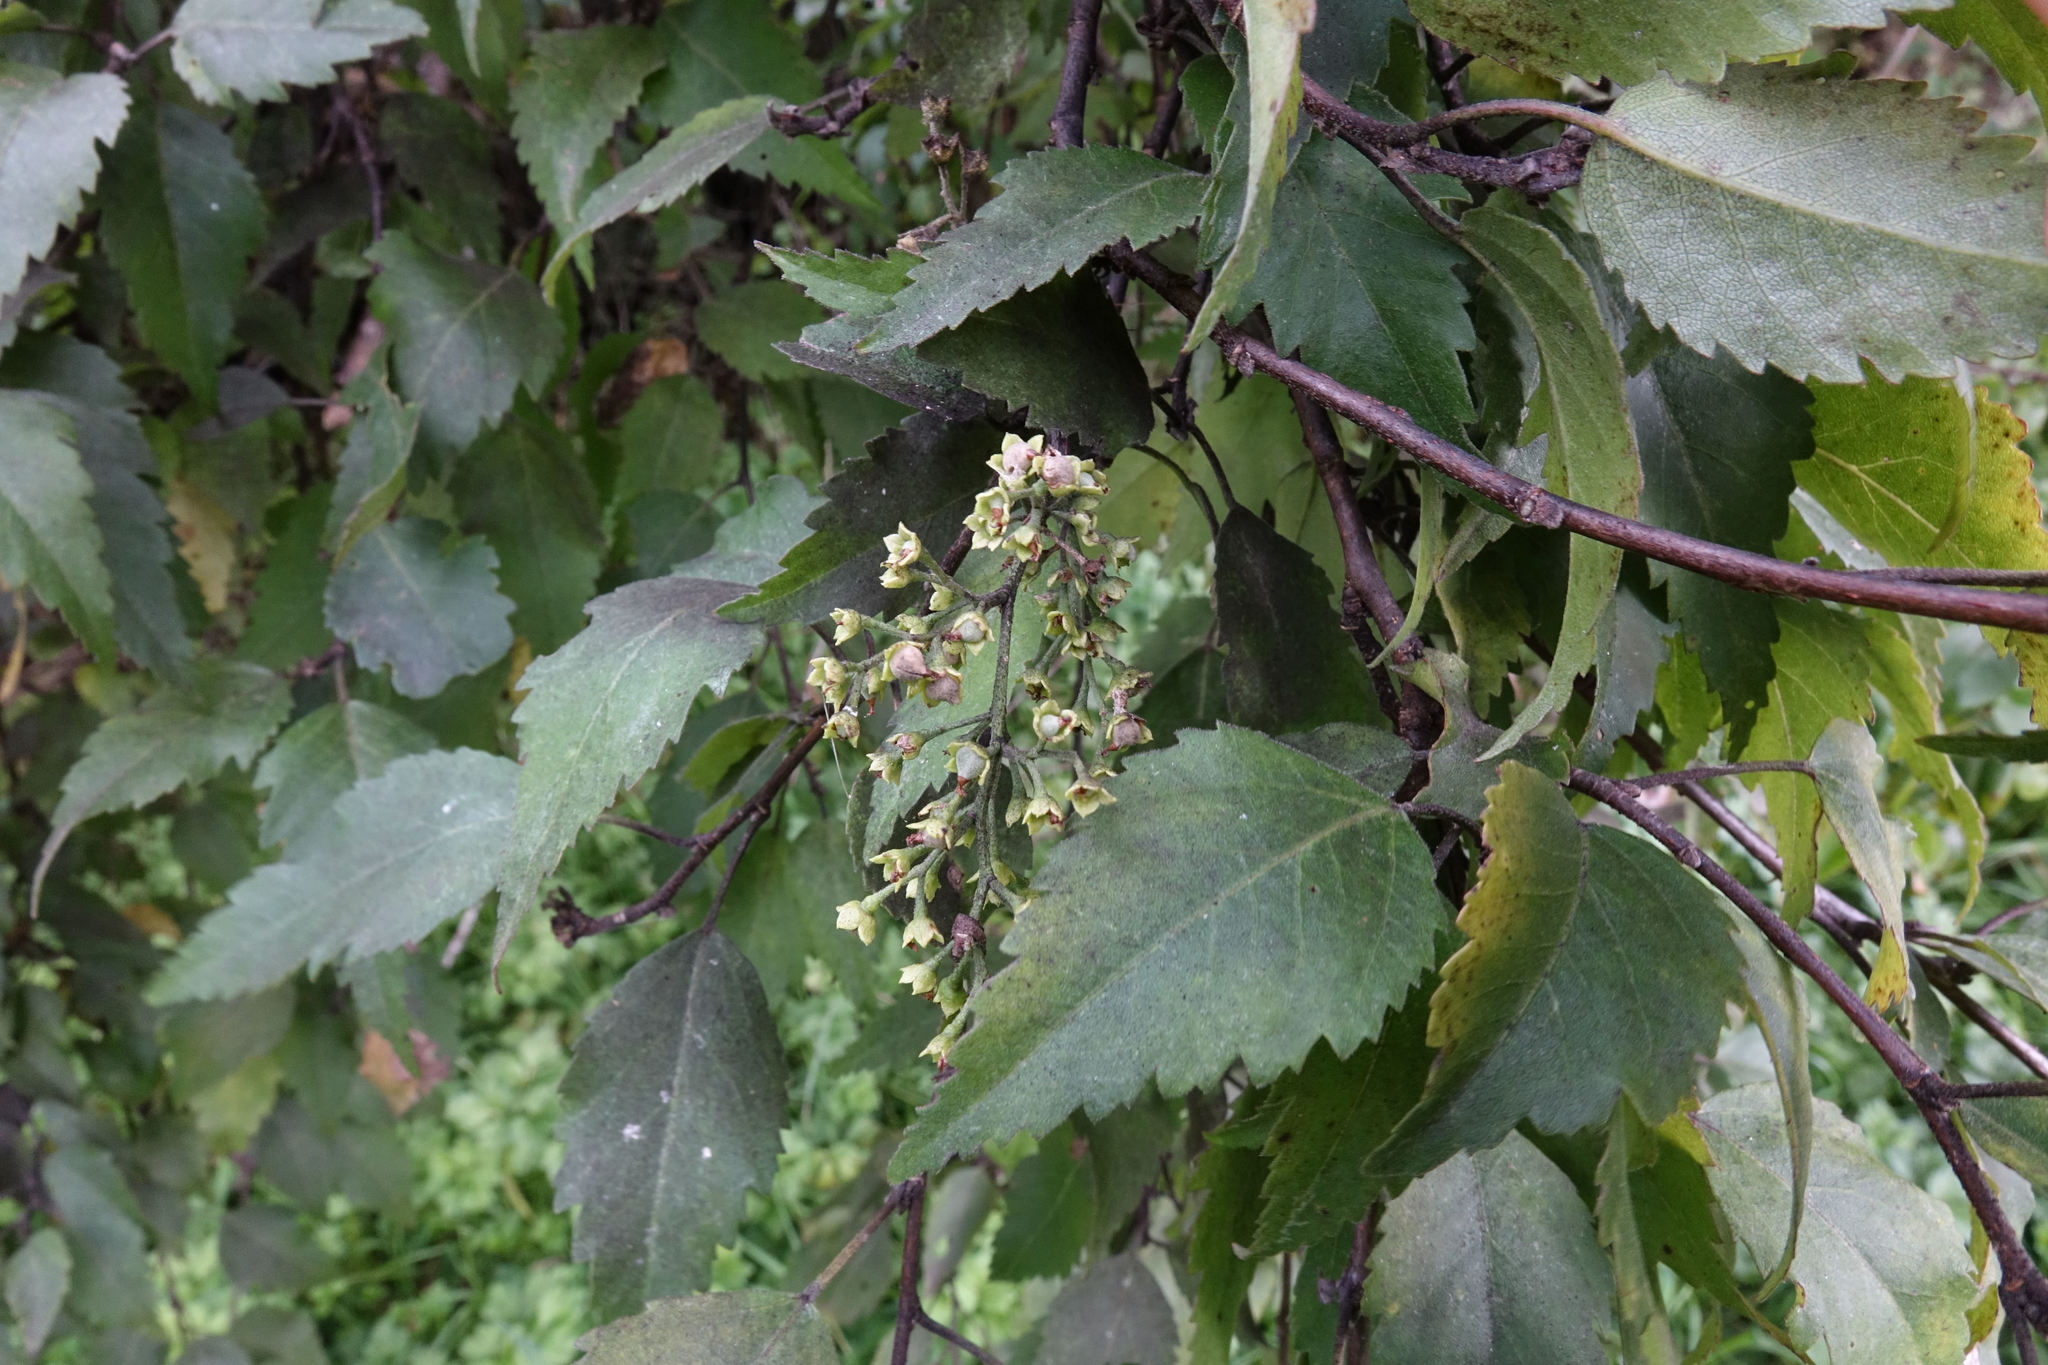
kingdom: Plantae
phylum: Tracheophyta
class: Magnoliopsida
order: Malvales
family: Malvaceae
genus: Plagianthus
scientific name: Plagianthus regius
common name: Manatu
